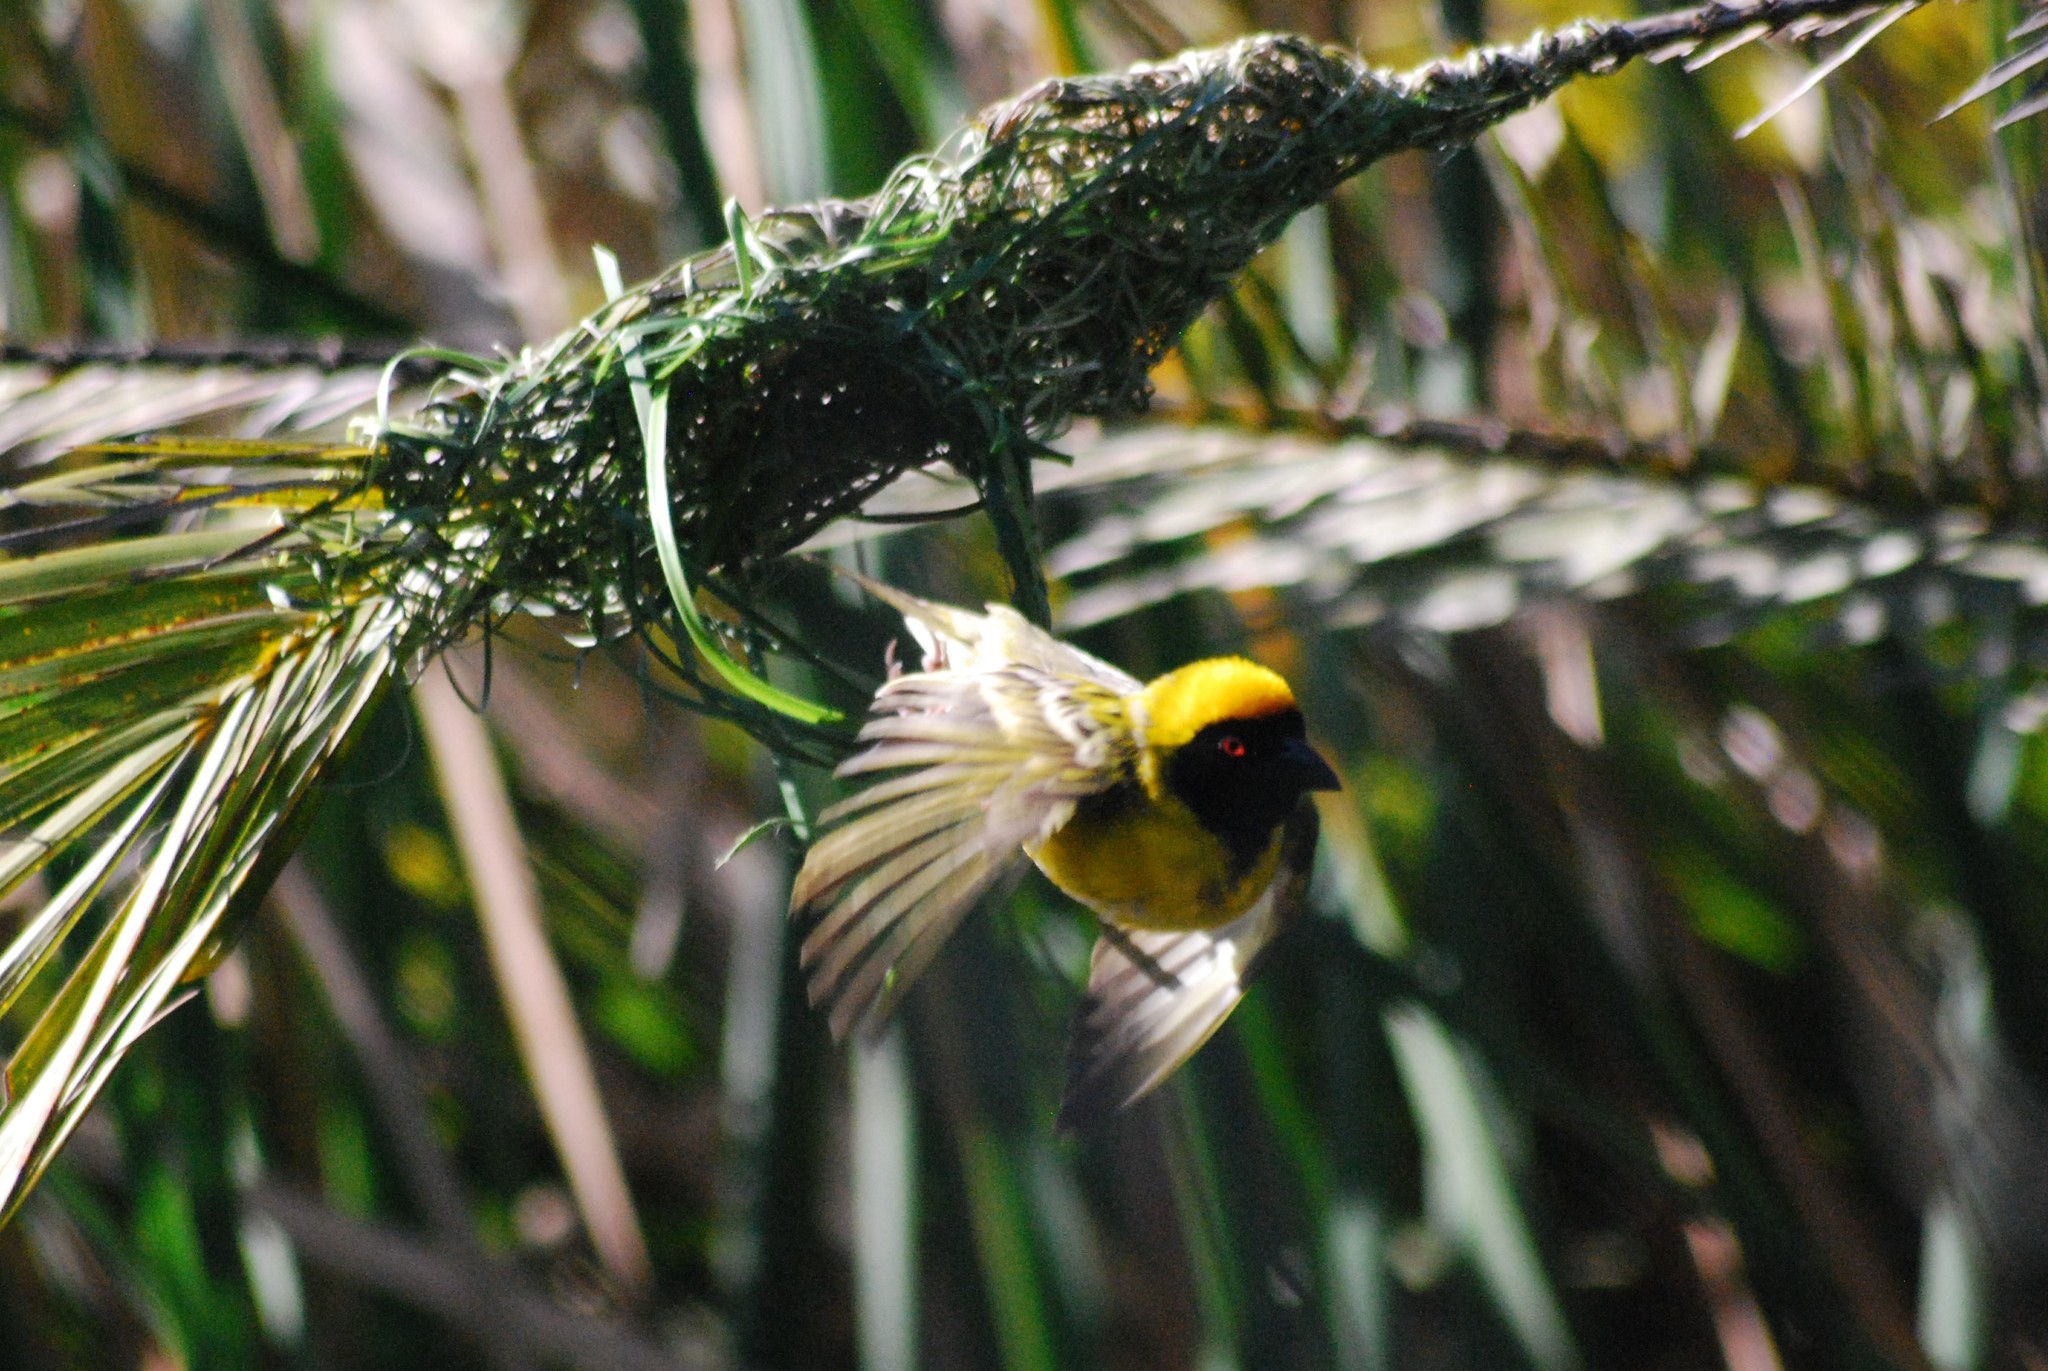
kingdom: Animalia
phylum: Chordata
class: Aves
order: Passeriformes
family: Ploceidae
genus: Ploceus
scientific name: Ploceus velatus
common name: Southern masked weaver
